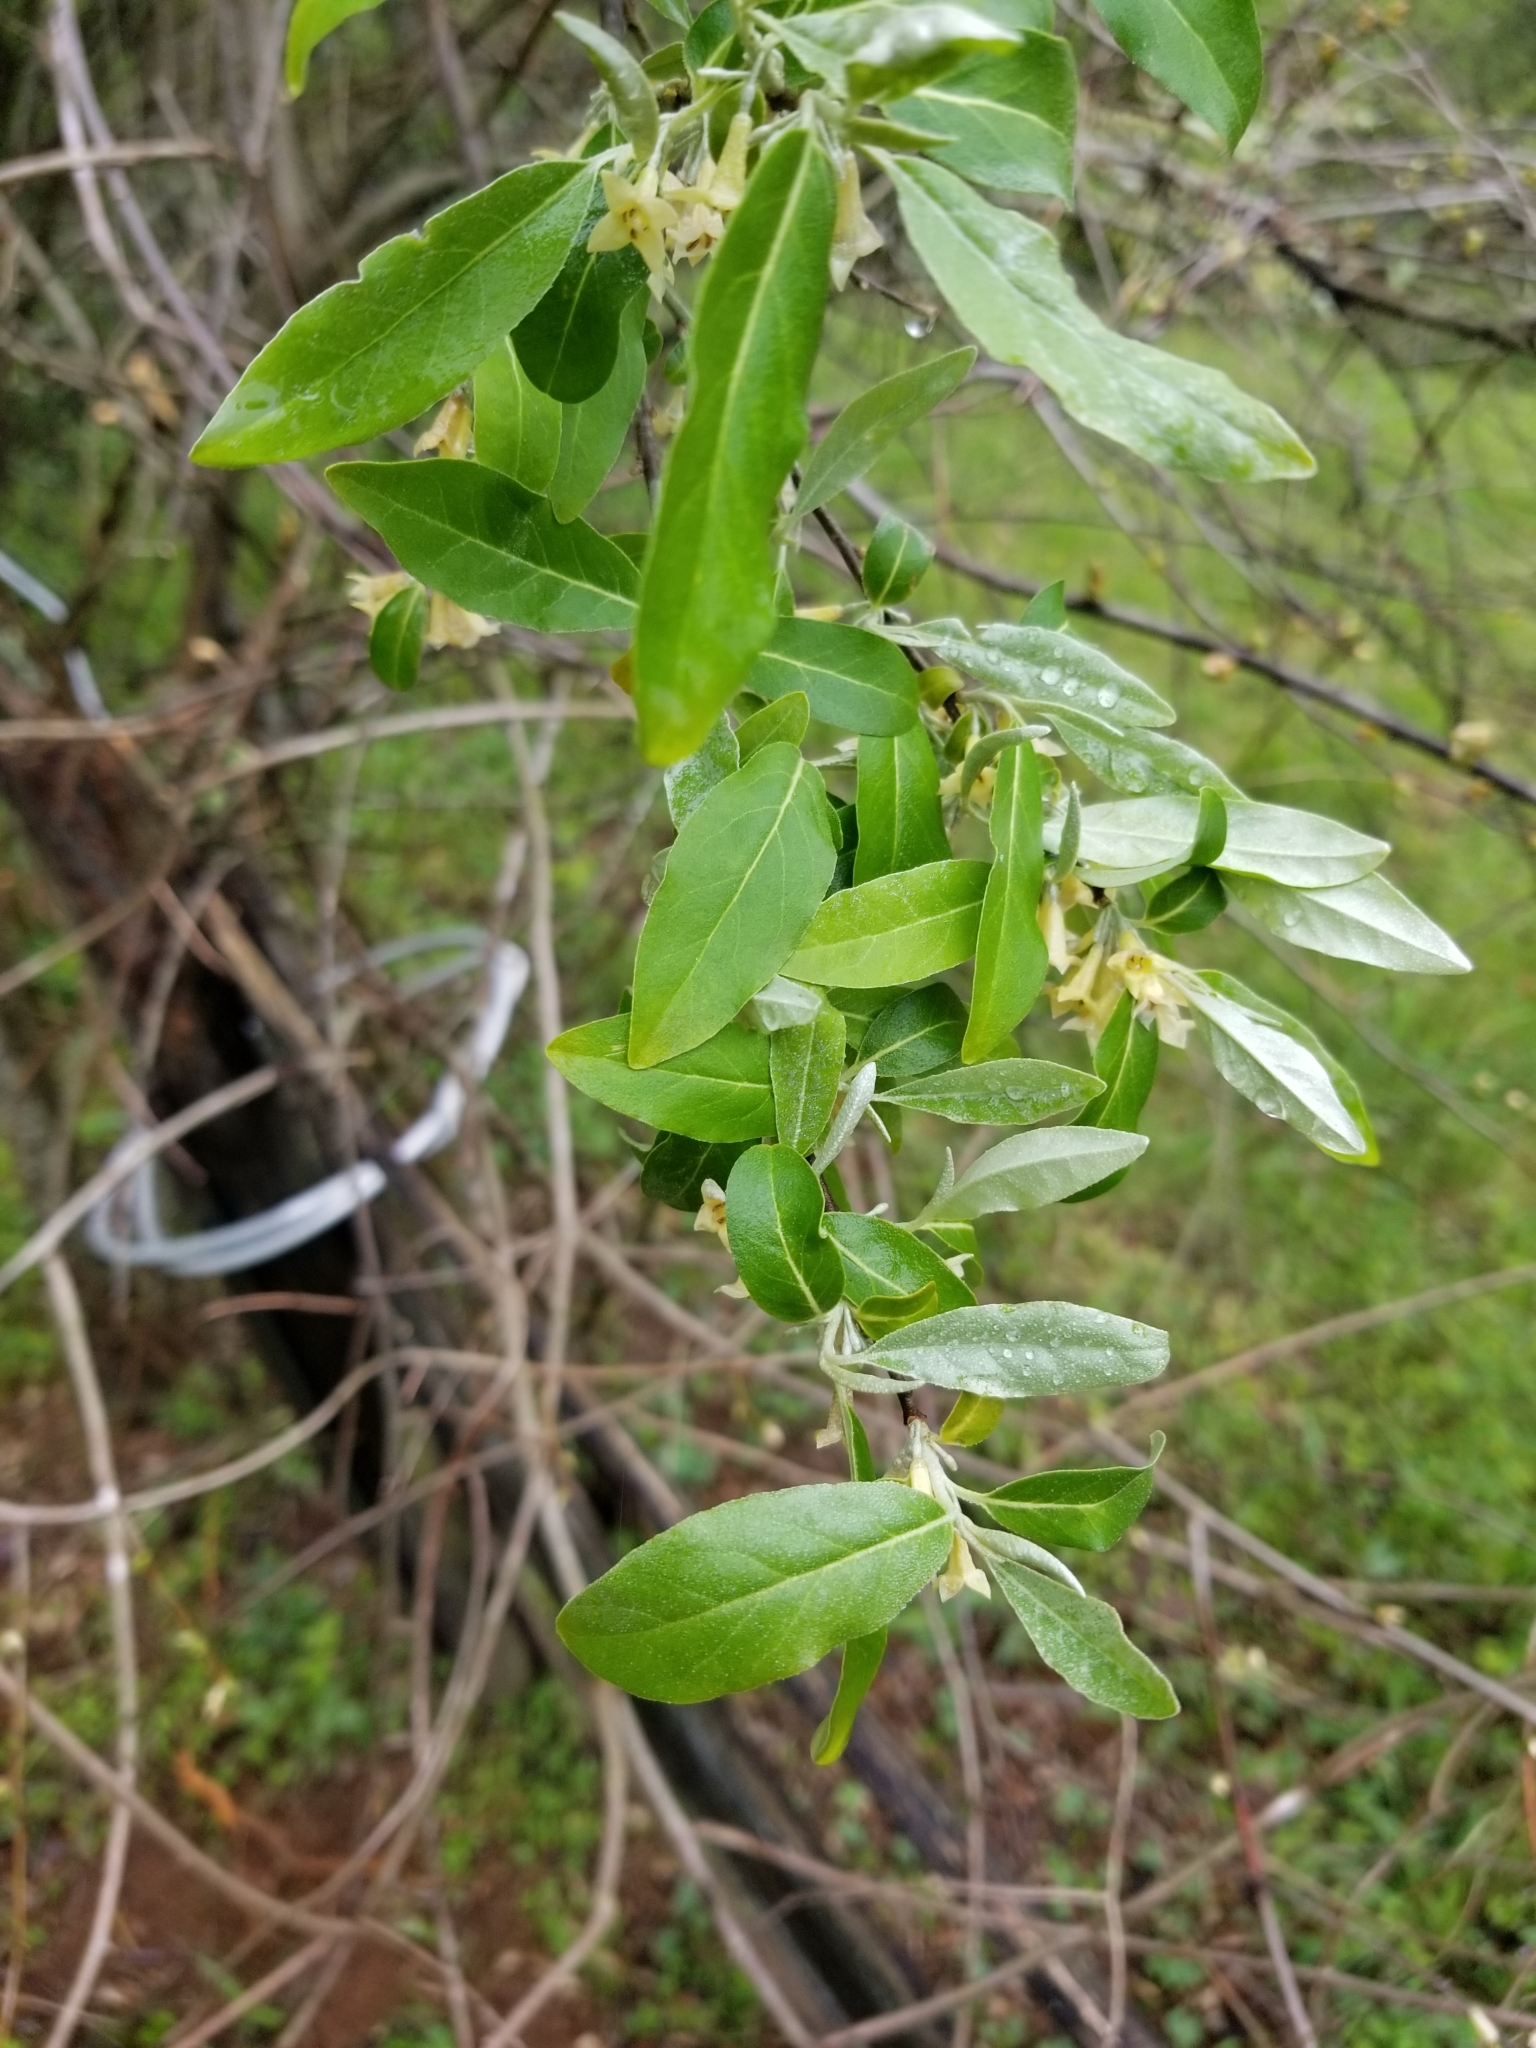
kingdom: Plantae
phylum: Tracheophyta
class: Magnoliopsida
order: Rosales
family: Elaeagnaceae
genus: Elaeagnus
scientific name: Elaeagnus umbellata
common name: Autumn olive
